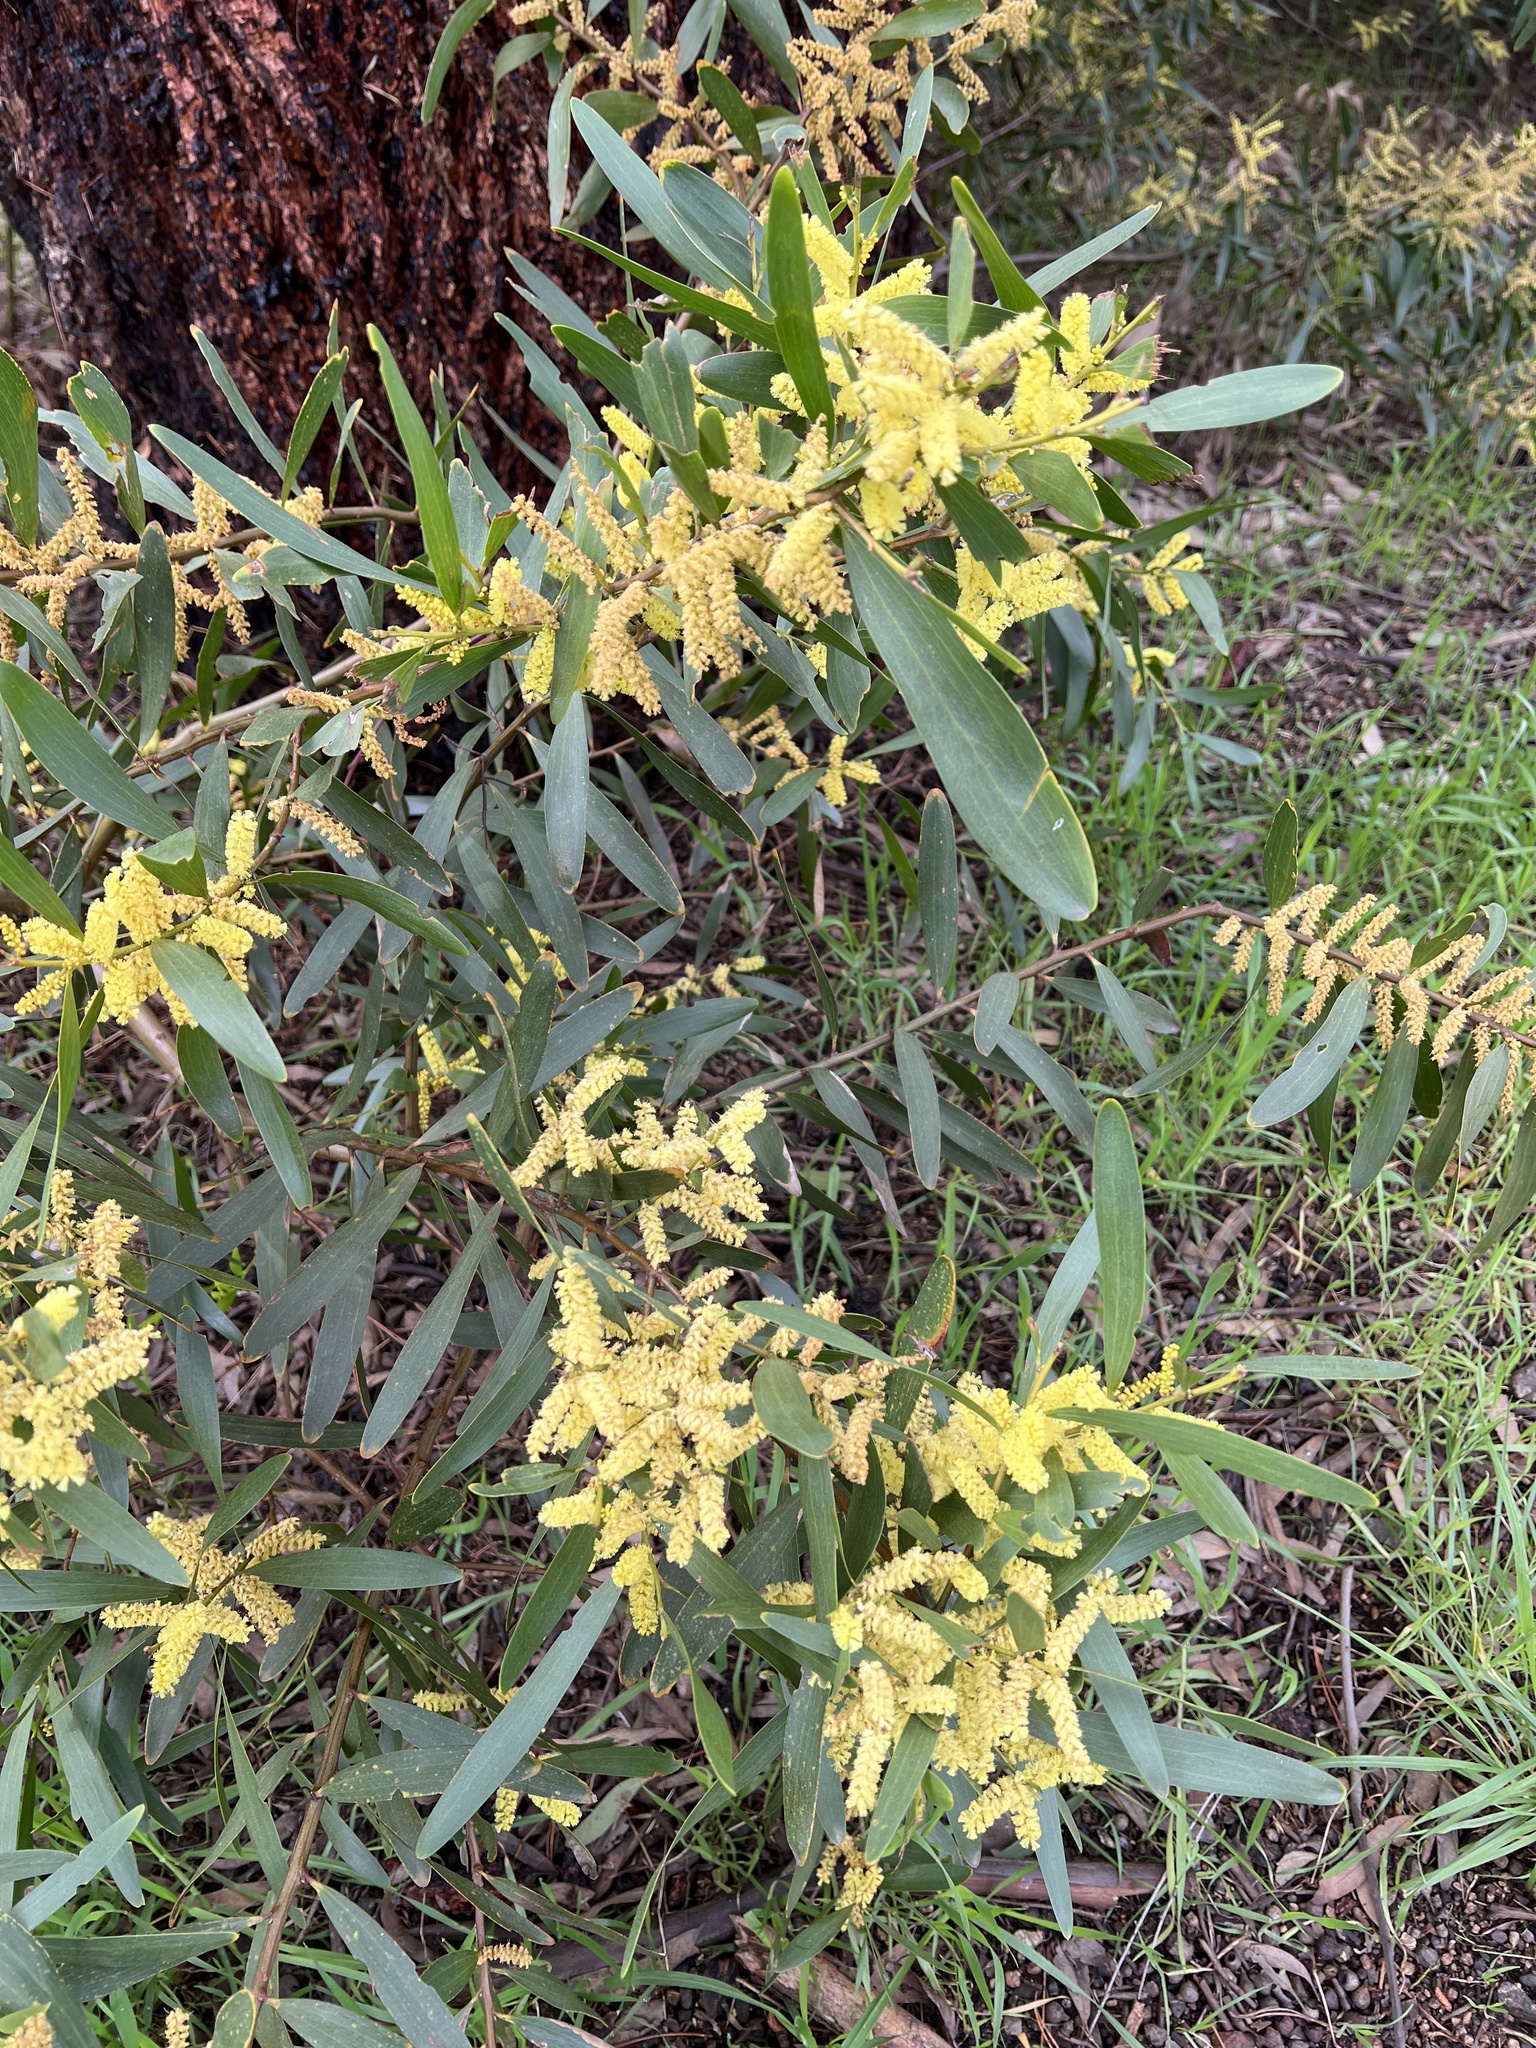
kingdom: Plantae
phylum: Tracheophyta
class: Magnoliopsida
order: Fabales
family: Fabaceae
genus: Acacia
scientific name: Acacia longifolia
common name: Sydney golden wattle
